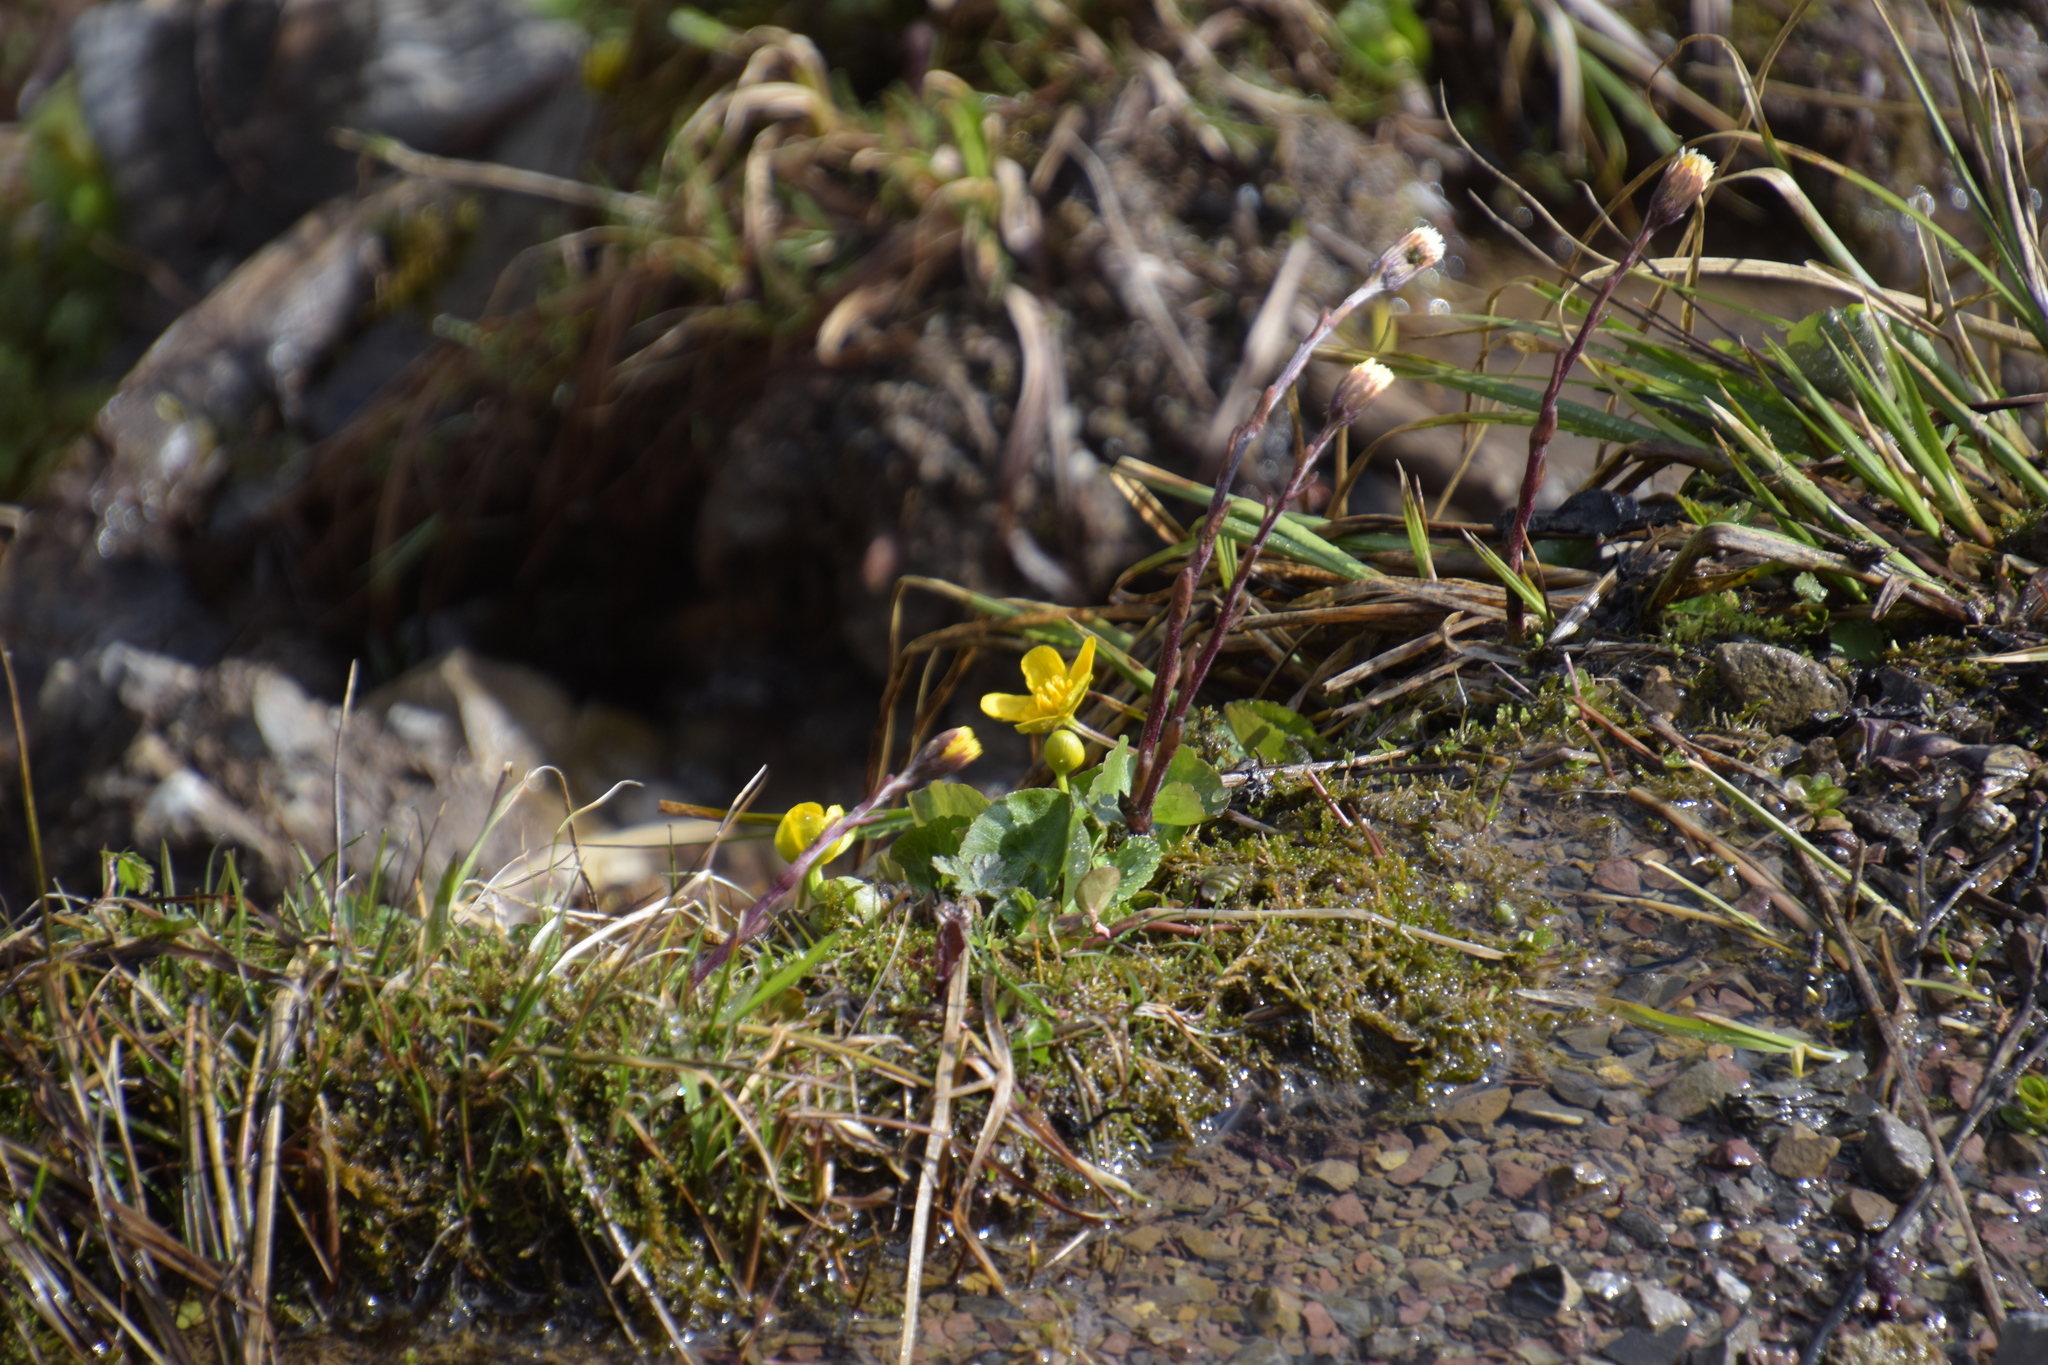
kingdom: Plantae
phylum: Tracheophyta
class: Magnoliopsida
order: Ranunculales
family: Ranunculaceae
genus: Caltha
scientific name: Caltha palustris
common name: Marsh marigold
